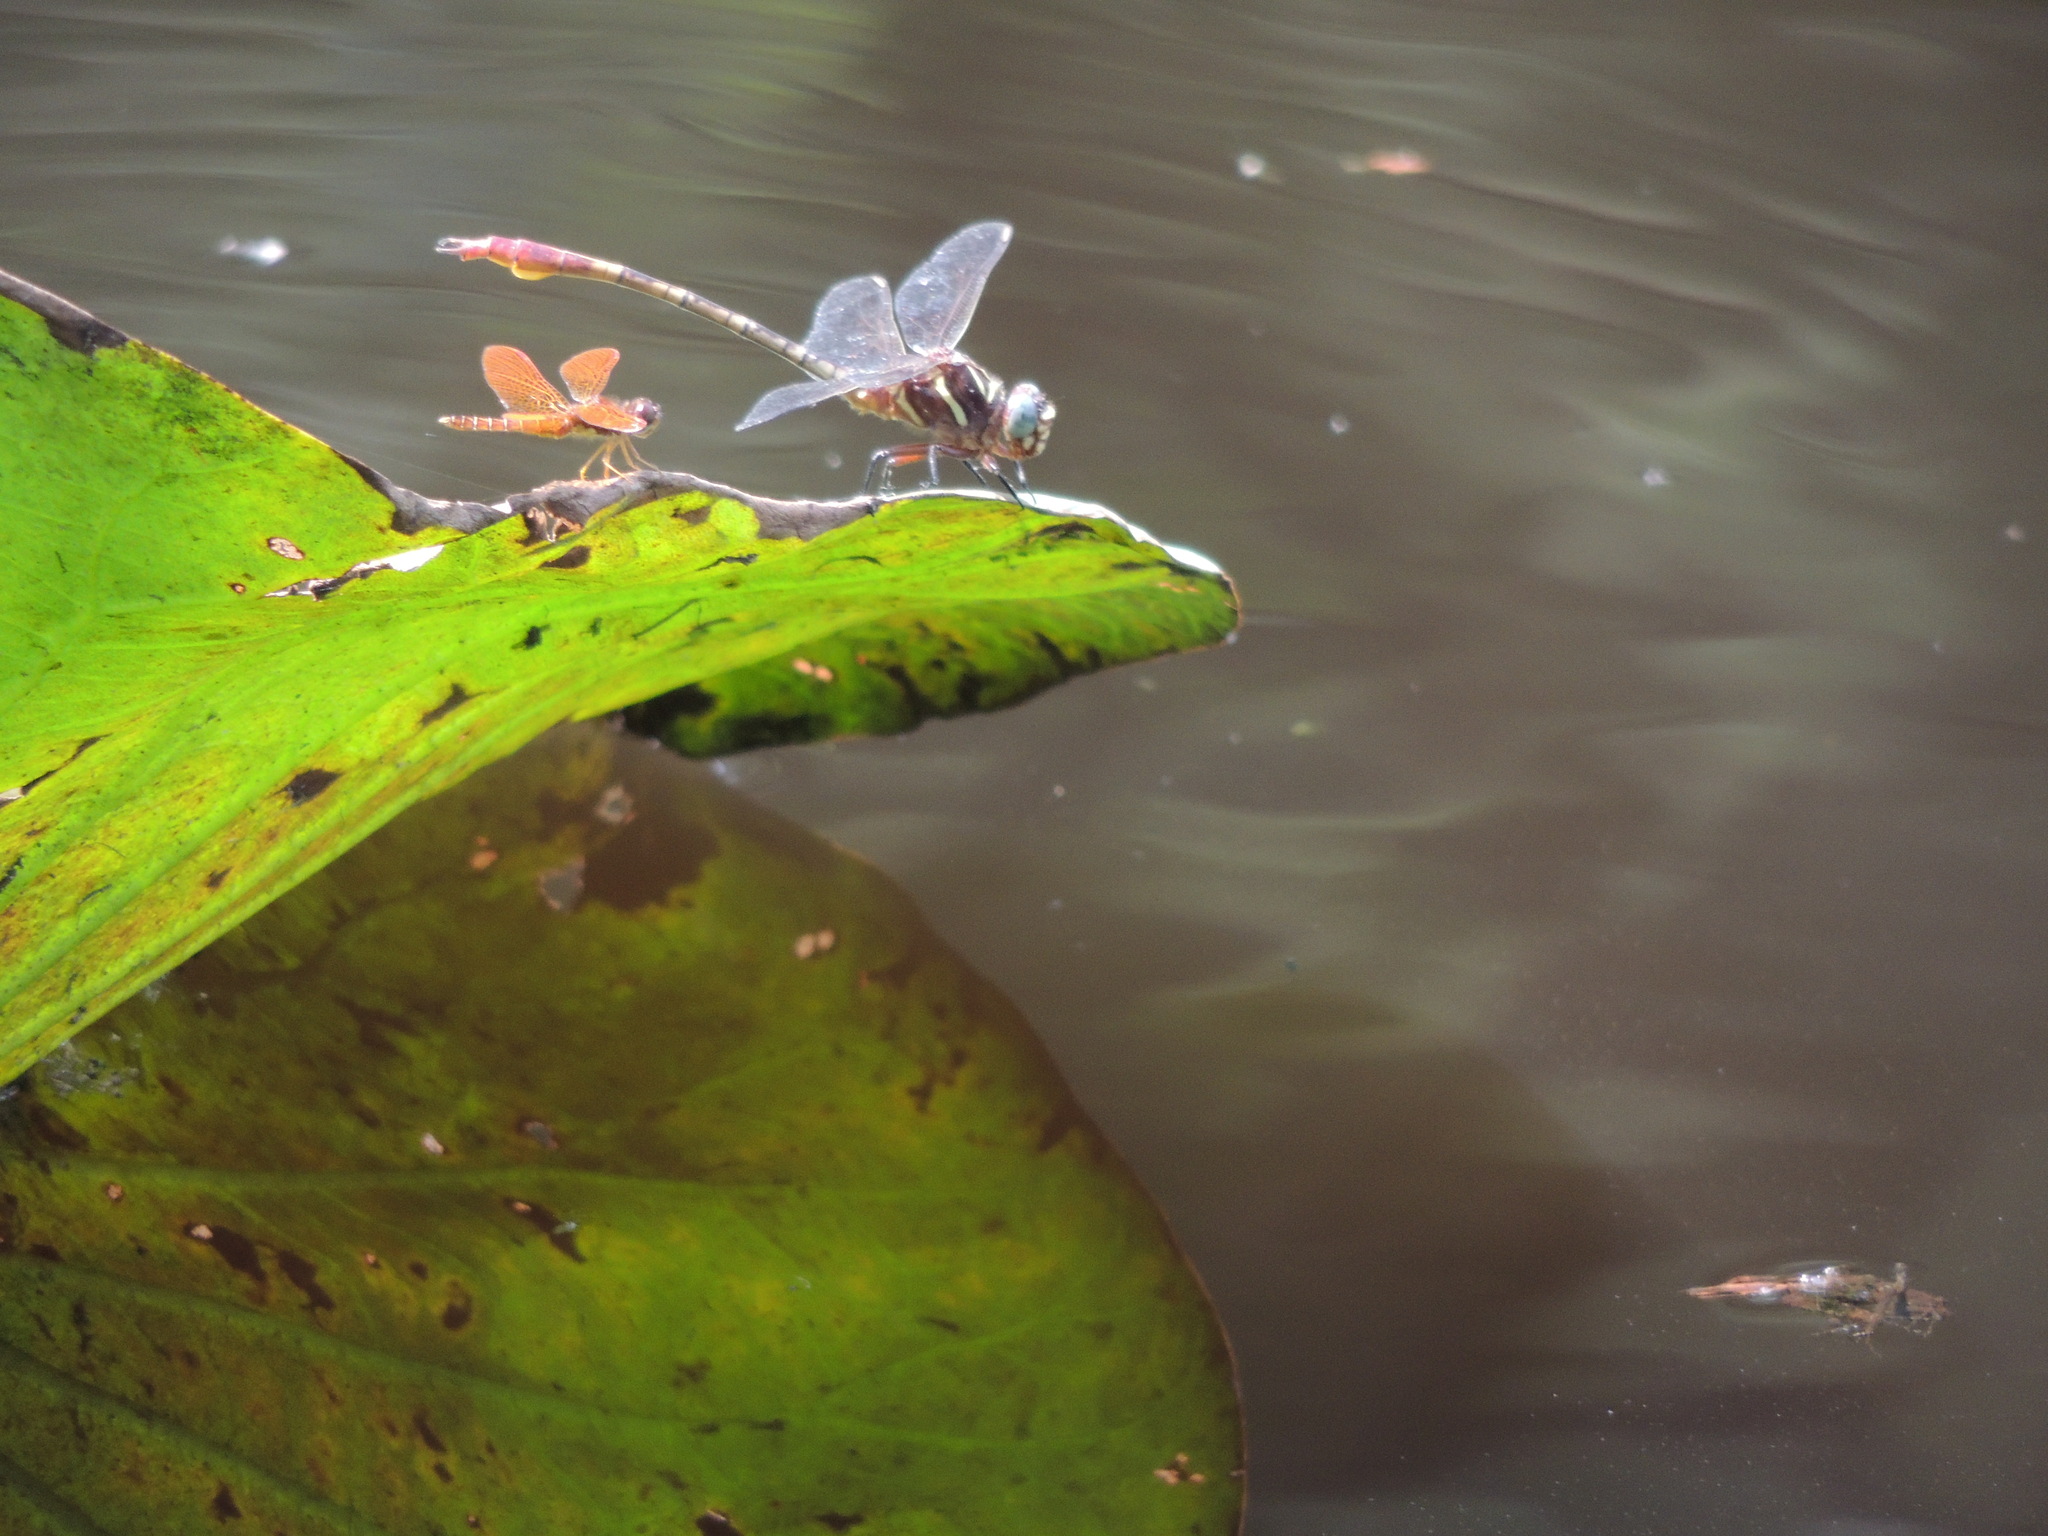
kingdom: Animalia
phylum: Arthropoda
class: Insecta
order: Odonata
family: Gomphidae
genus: Aphylla
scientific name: Aphylla williamsoni
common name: Two-striped forceptail
